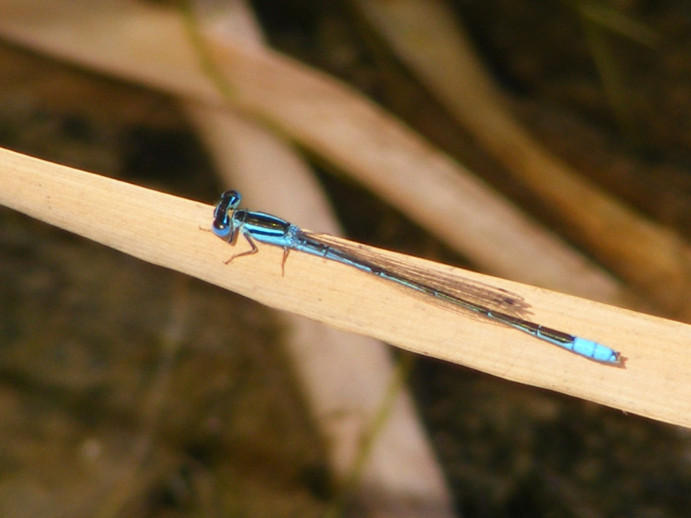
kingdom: Animalia
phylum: Arthropoda
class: Insecta
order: Odonata
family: Coenagrionidae
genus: Africallagma
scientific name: Africallagma glaucum
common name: Swamp bluet
